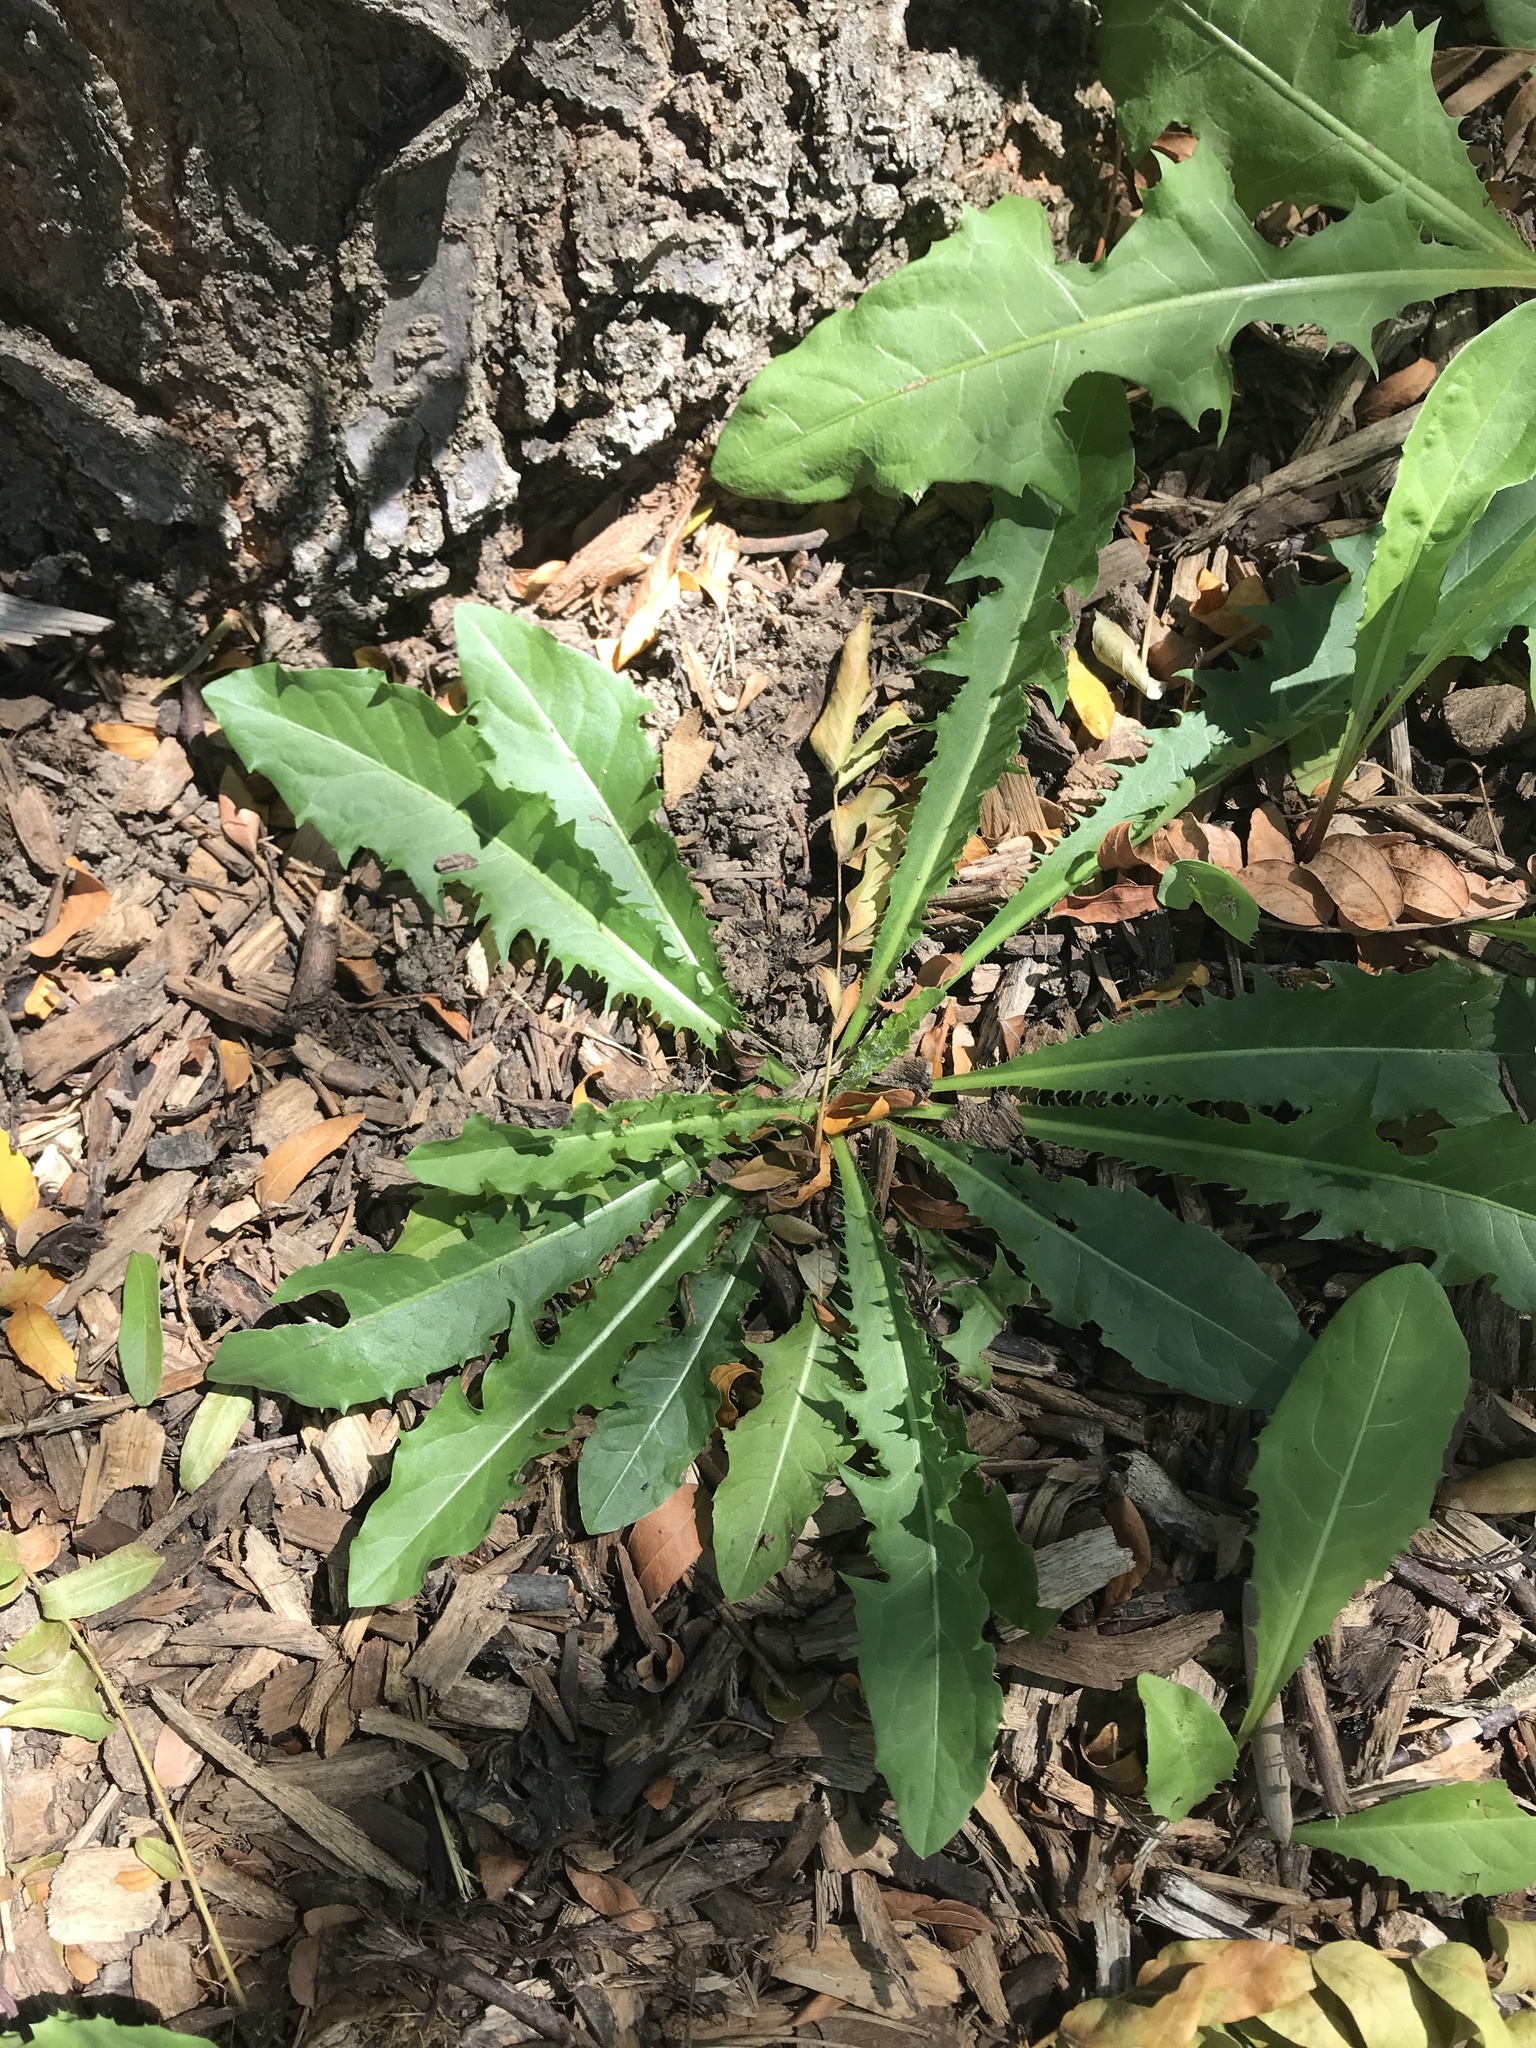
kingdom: Plantae
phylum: Tracheophyta
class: Magnoliopsida
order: Asterales
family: Asteraceae
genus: Taraxacum
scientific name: Taraxacum officinale
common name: Common dandelion
